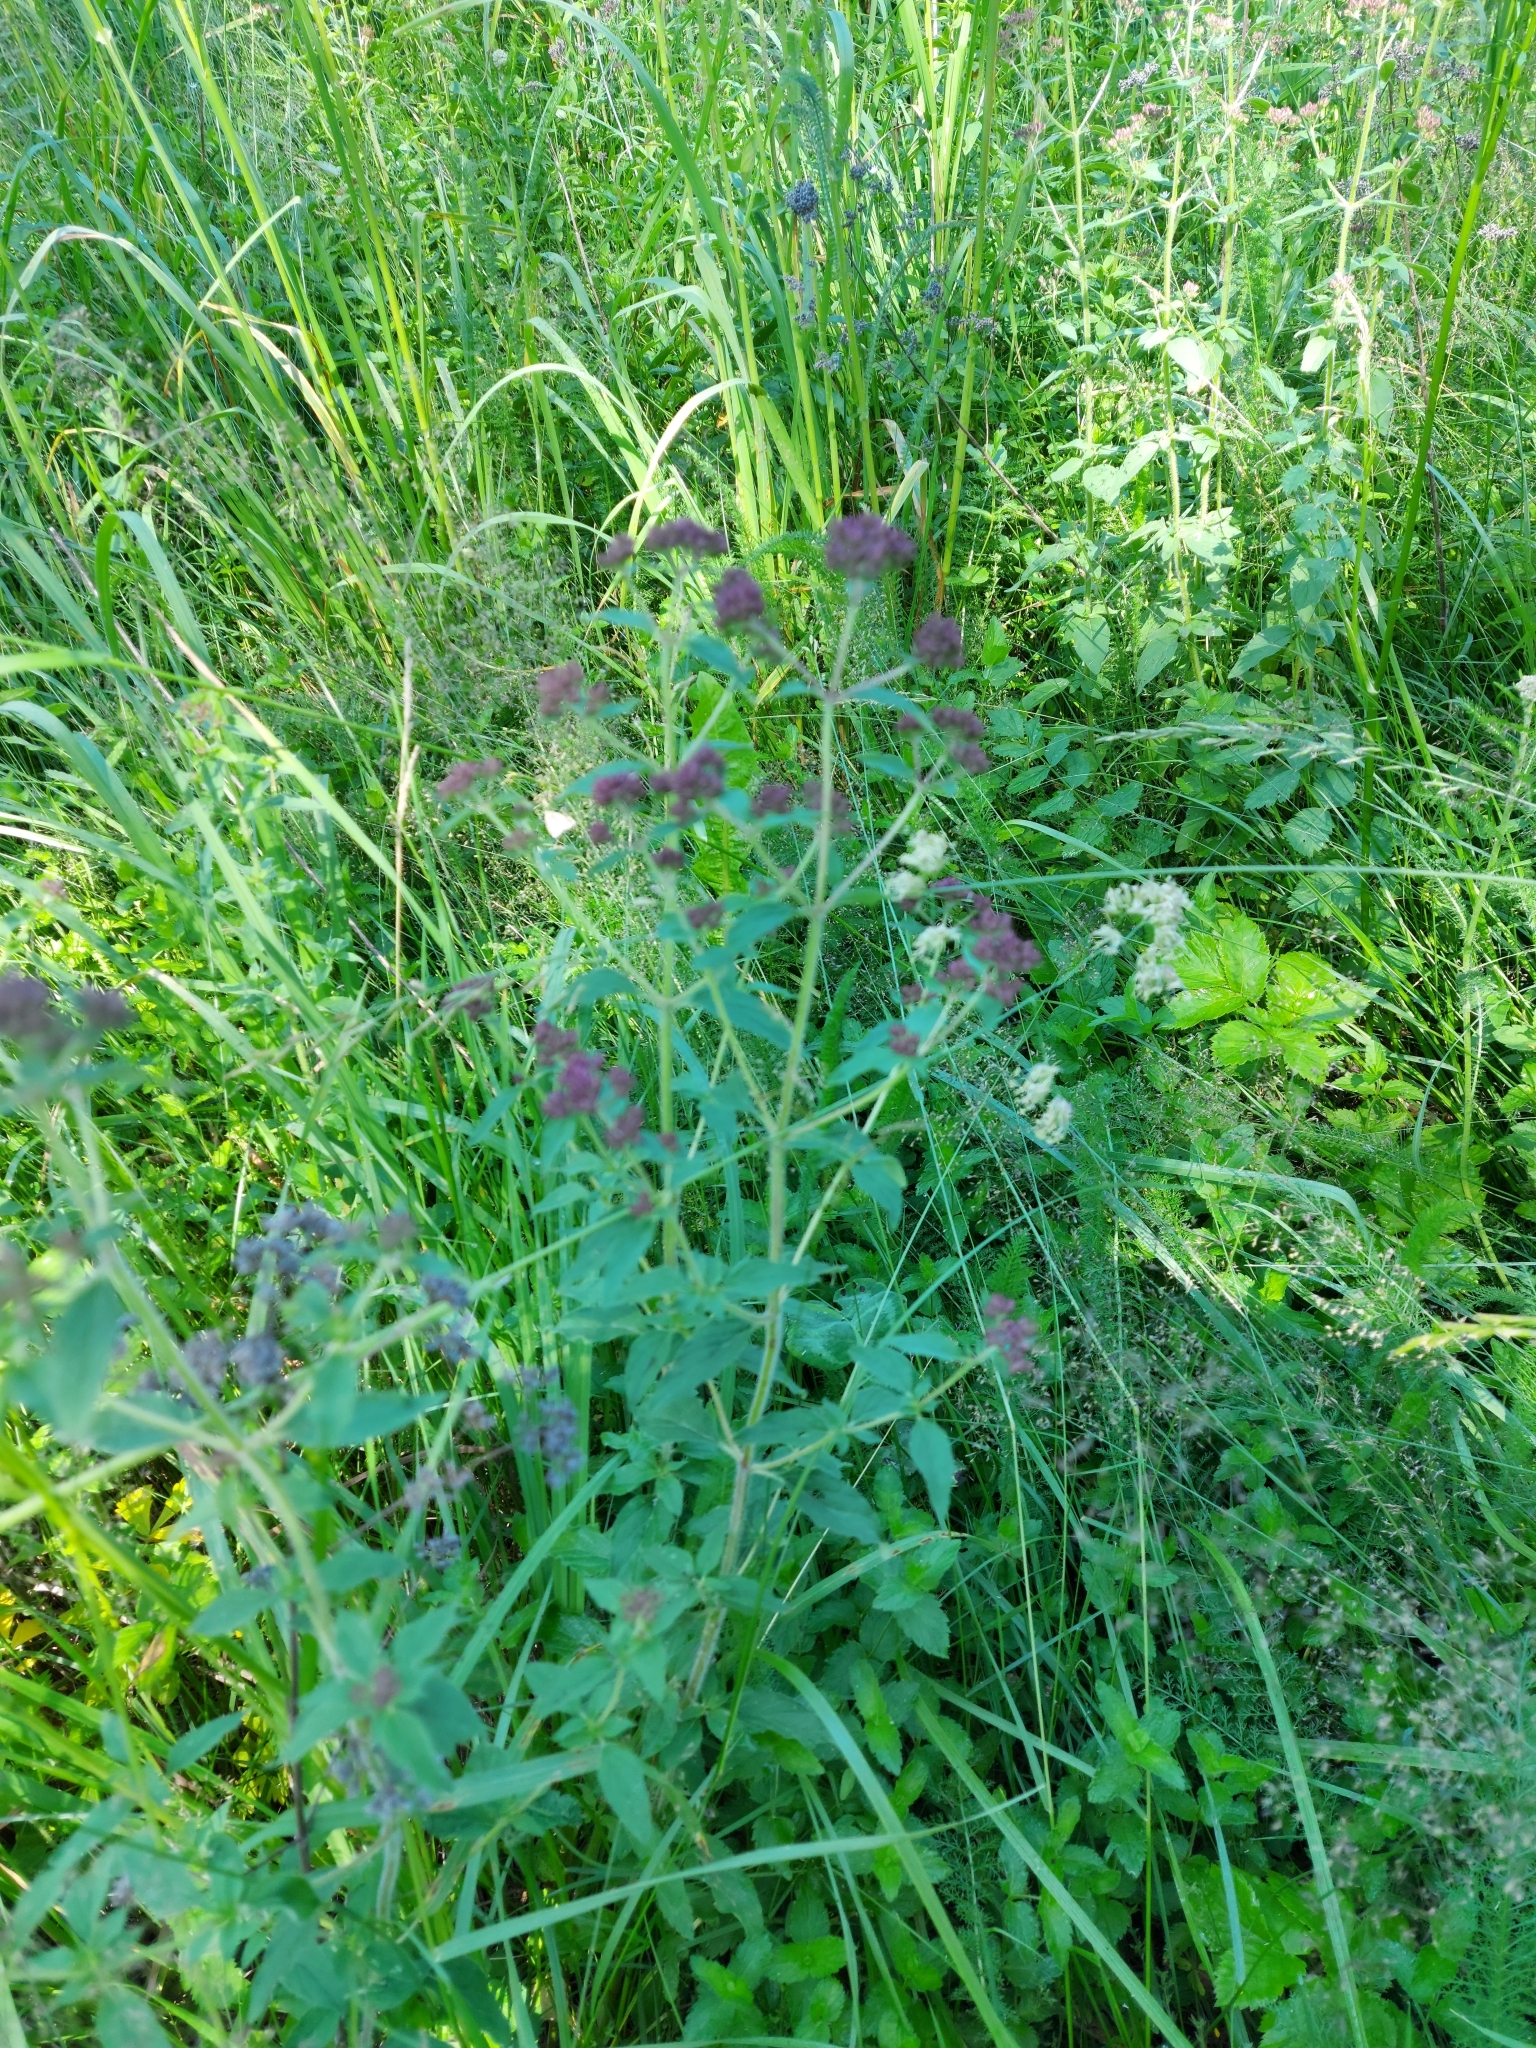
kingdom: Plantae
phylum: Tracheophyta
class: Magnoliopsida
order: Lamiales
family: Lamiaceae
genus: Origanum
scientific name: Origanum vulgare
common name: Wild marjoram
